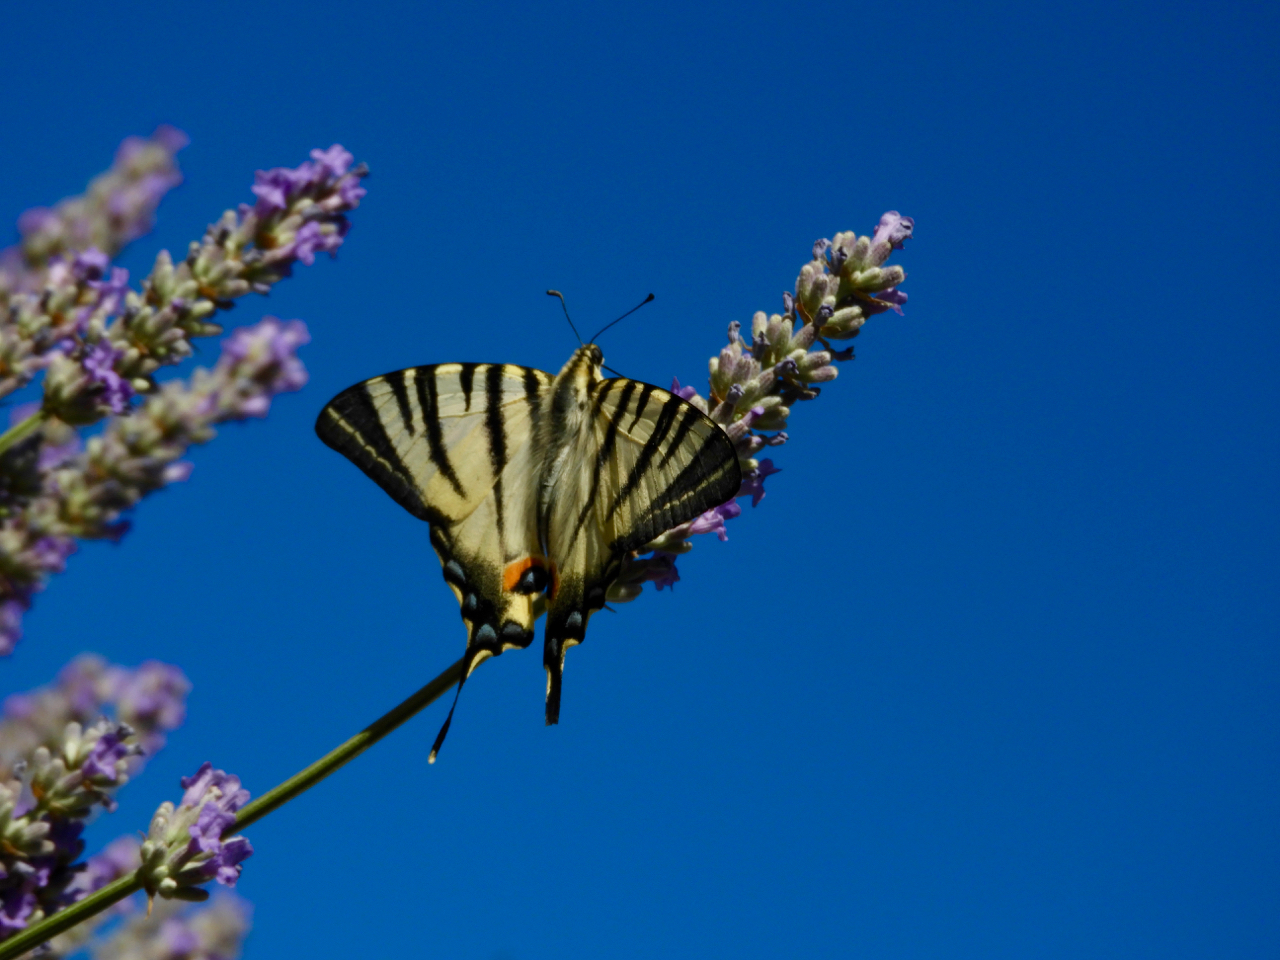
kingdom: Animalia
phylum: Arthropoda
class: Insecta
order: Lepidoptera
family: Papilionidae
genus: Iphiclides
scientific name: Iphiclides podalirius
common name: Scarce swallowtail
